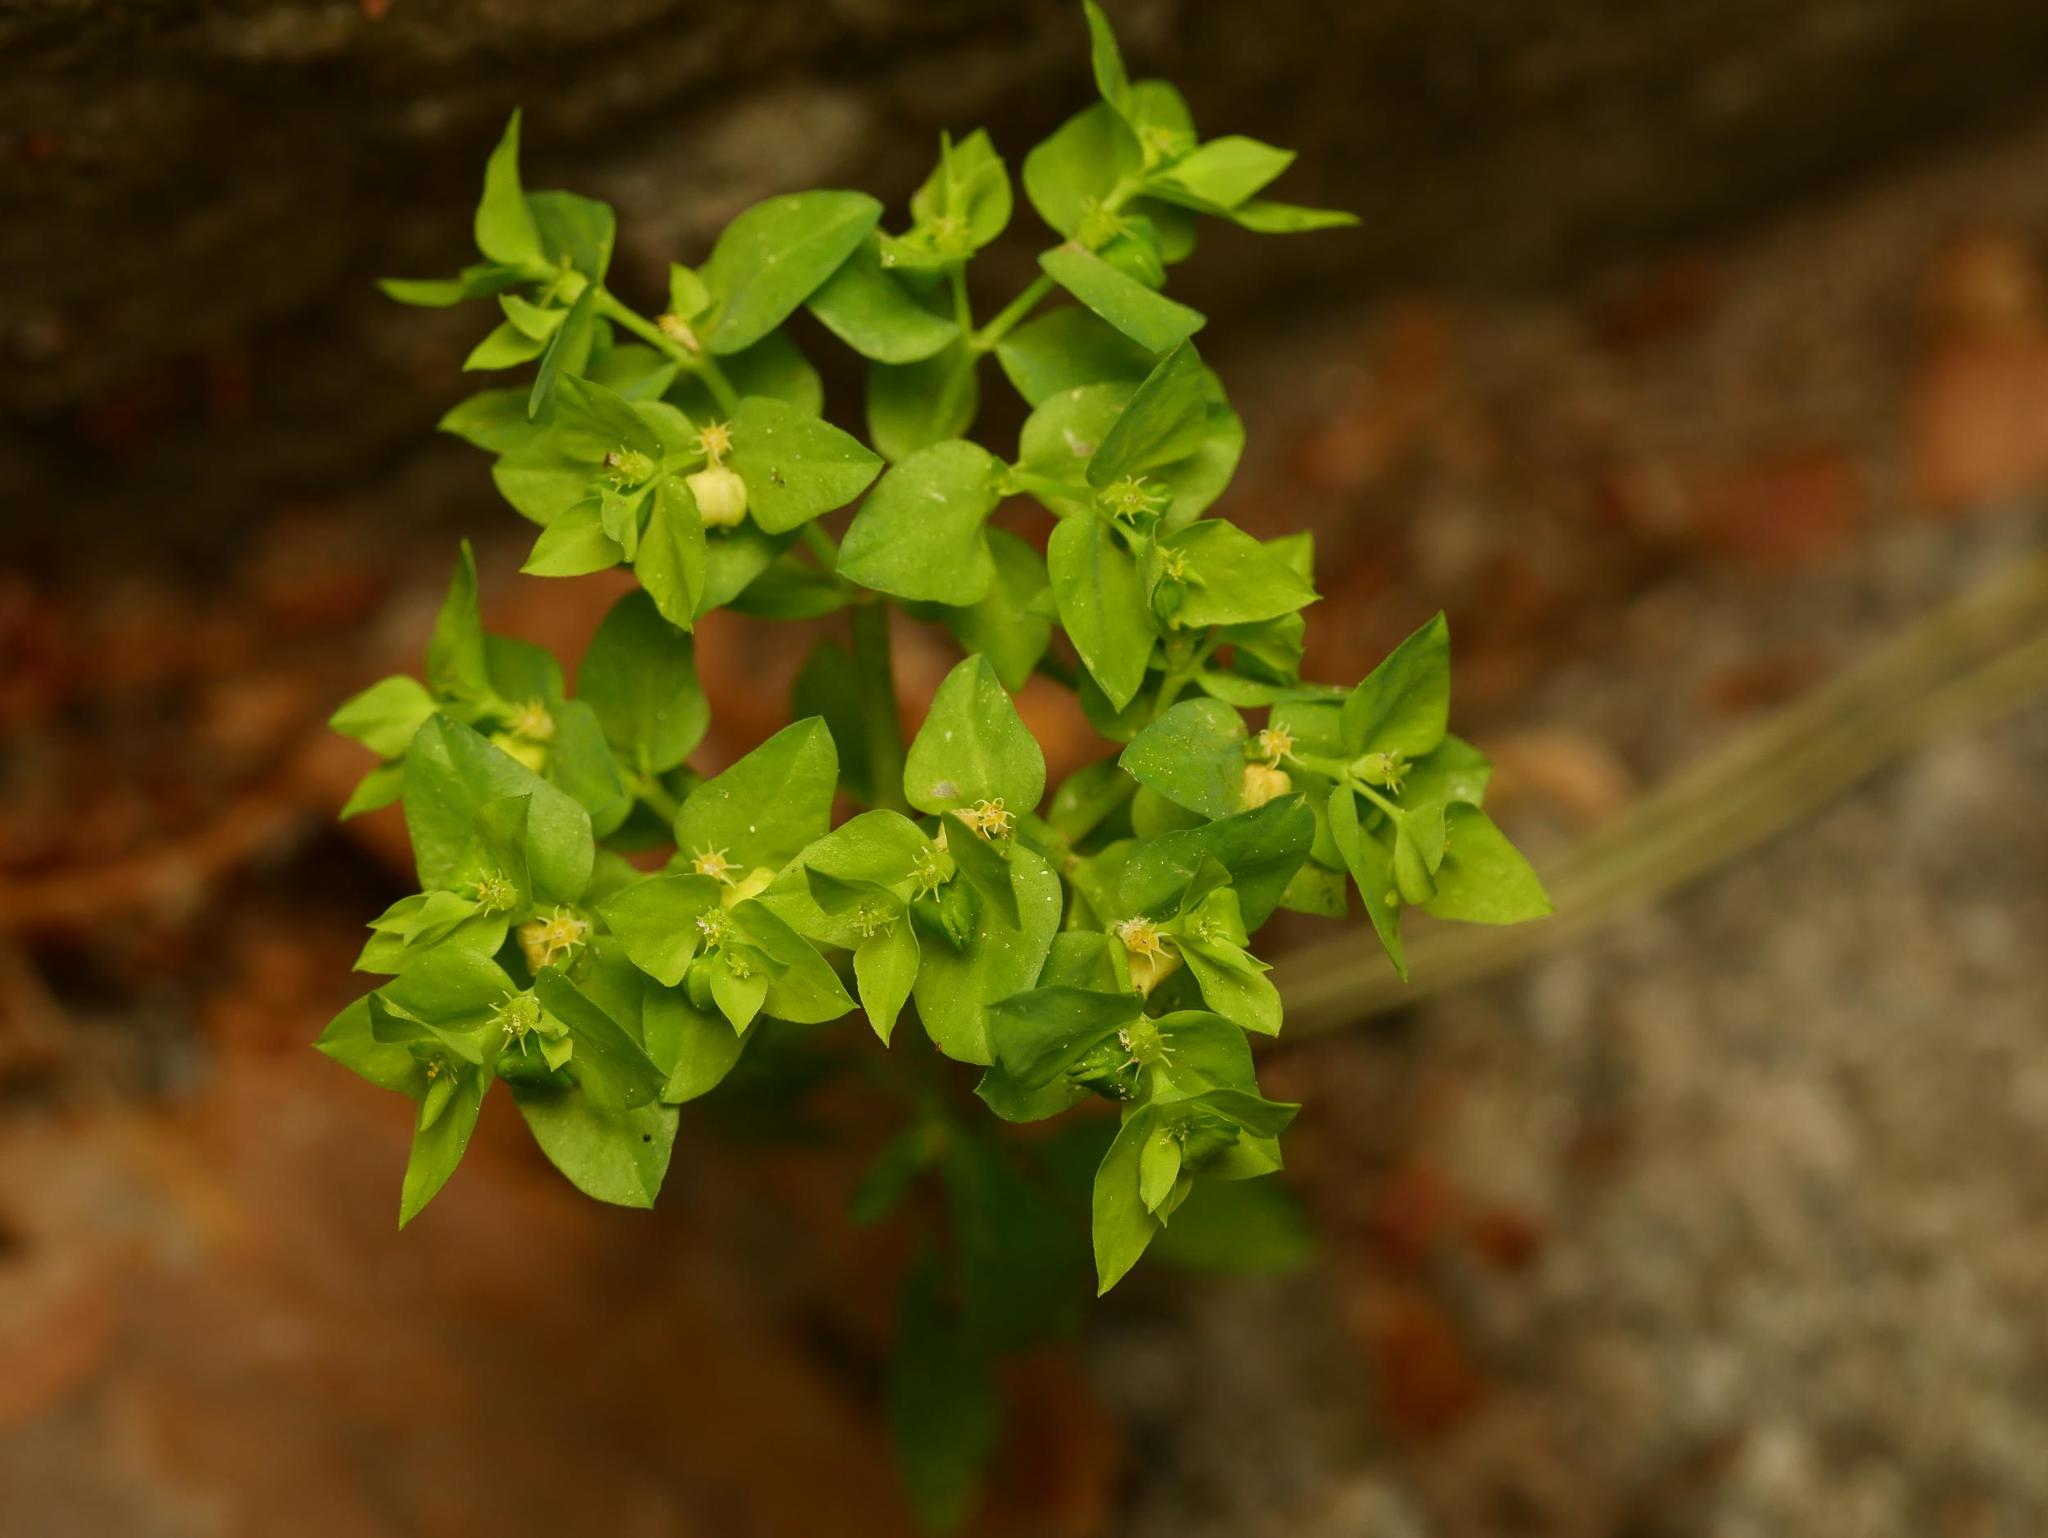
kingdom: Plantae
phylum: Tracheophyta
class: Magnoliopsida
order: Malpighiales
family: Euphorbiaceae
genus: Euphorbia
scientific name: Euphorbia peplus
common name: Petty spurge
